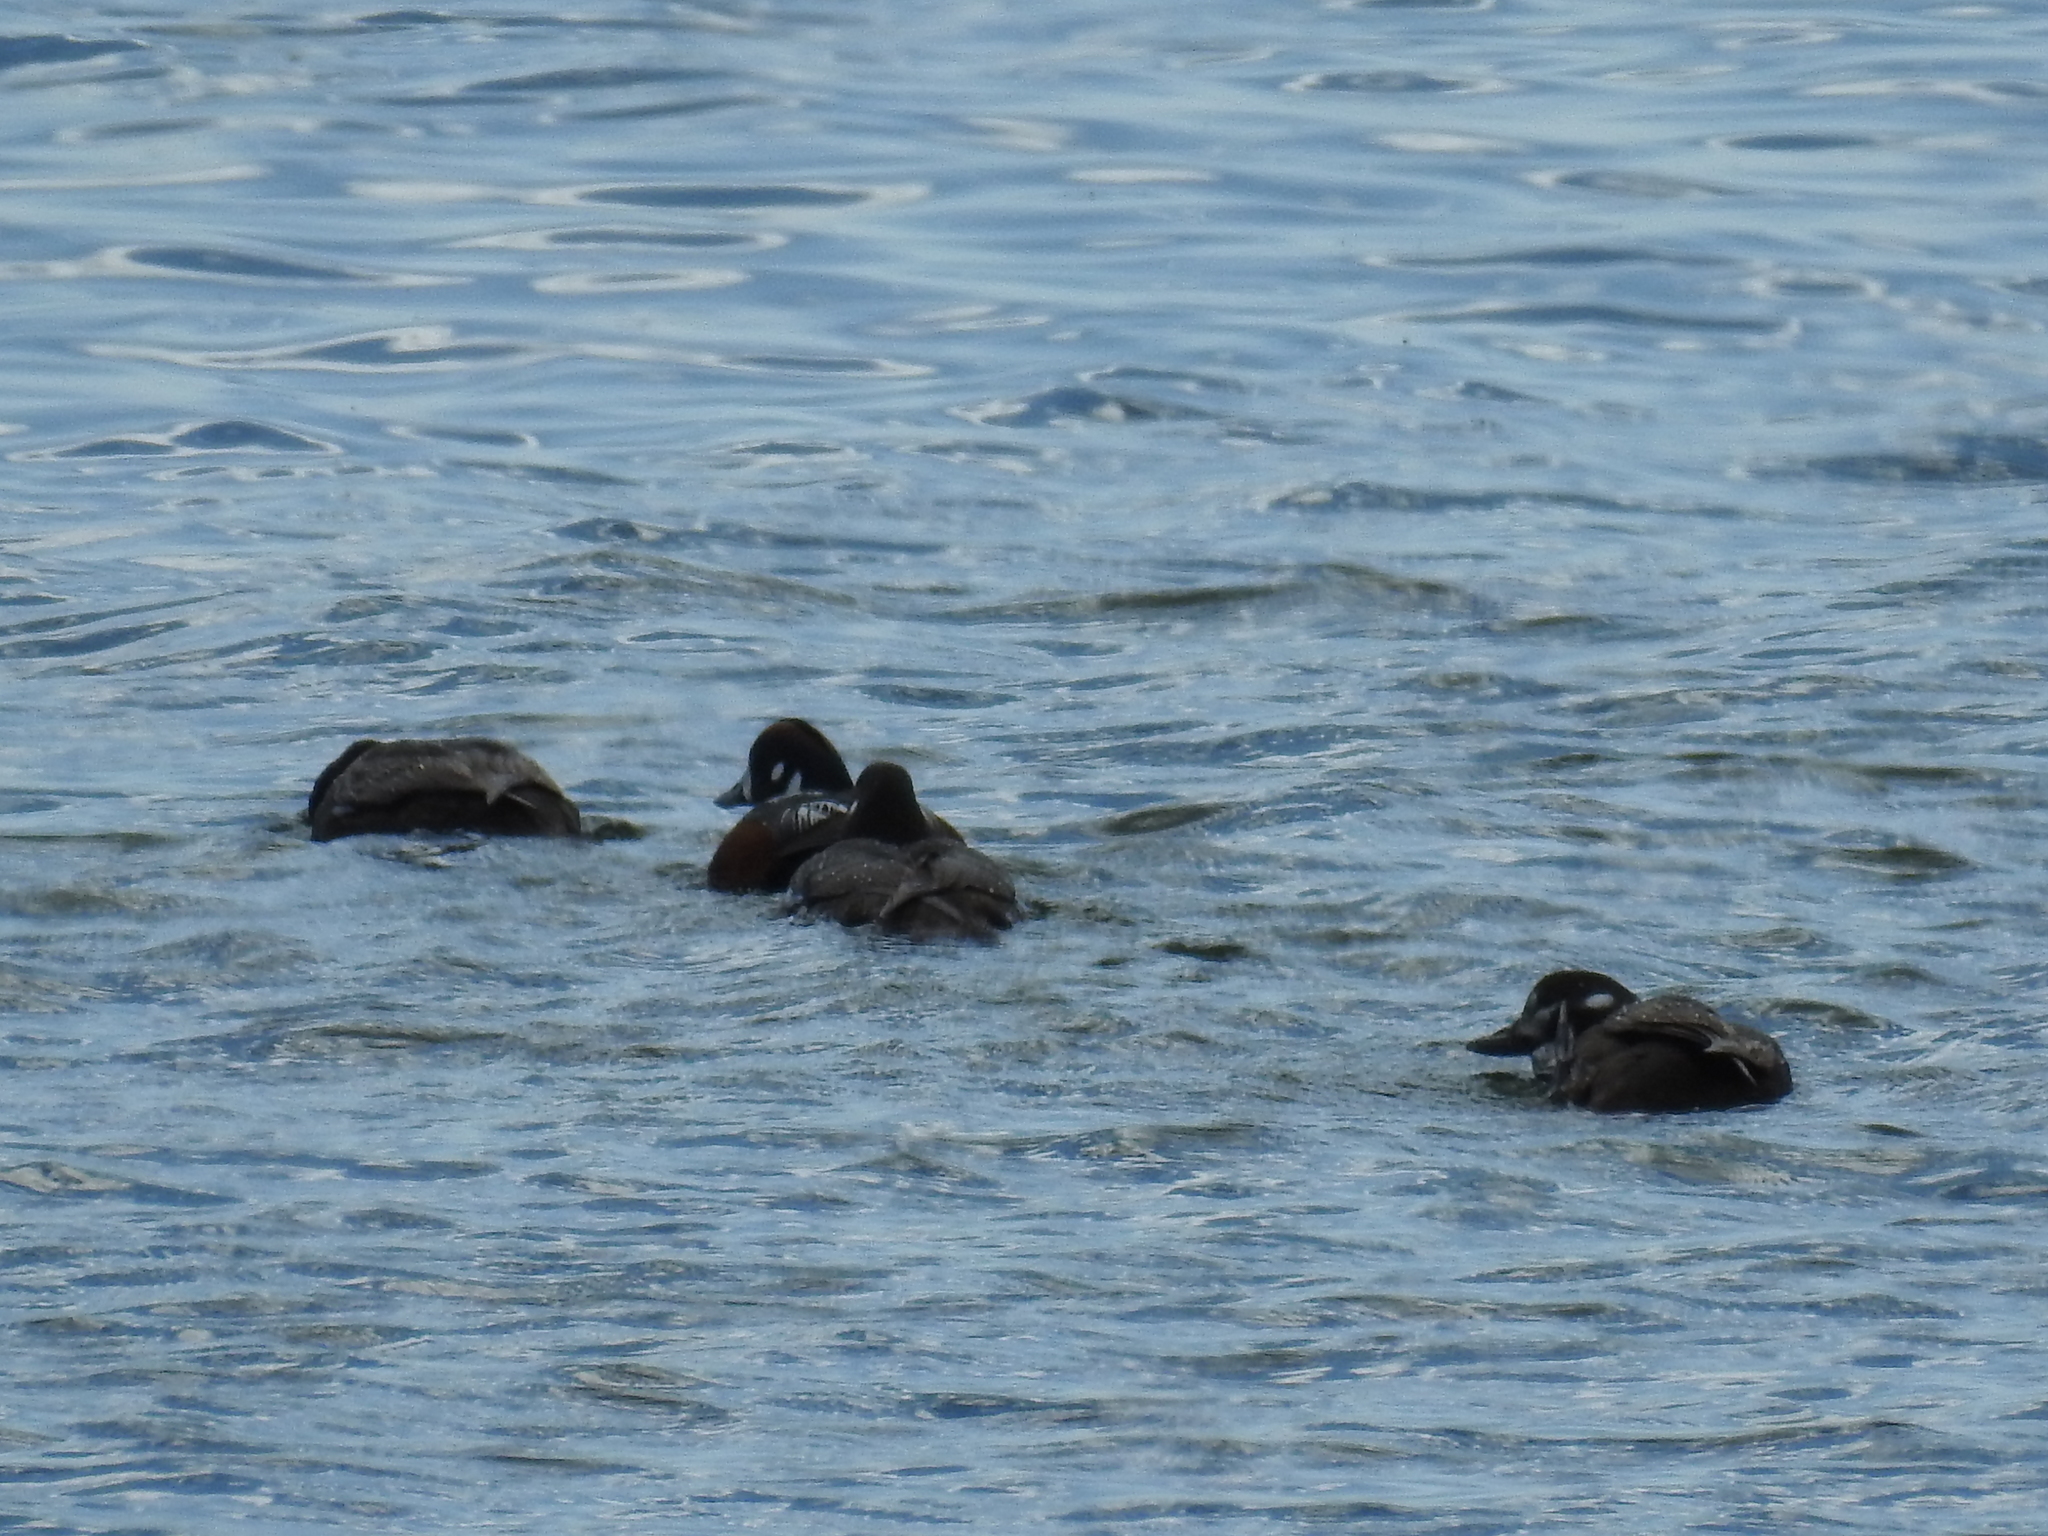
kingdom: Animalia
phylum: Chordata
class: Aves
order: Anseriformes
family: Anatidae
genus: Histrionicus
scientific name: Histrionicus histrionicus
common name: Harlequin duck
